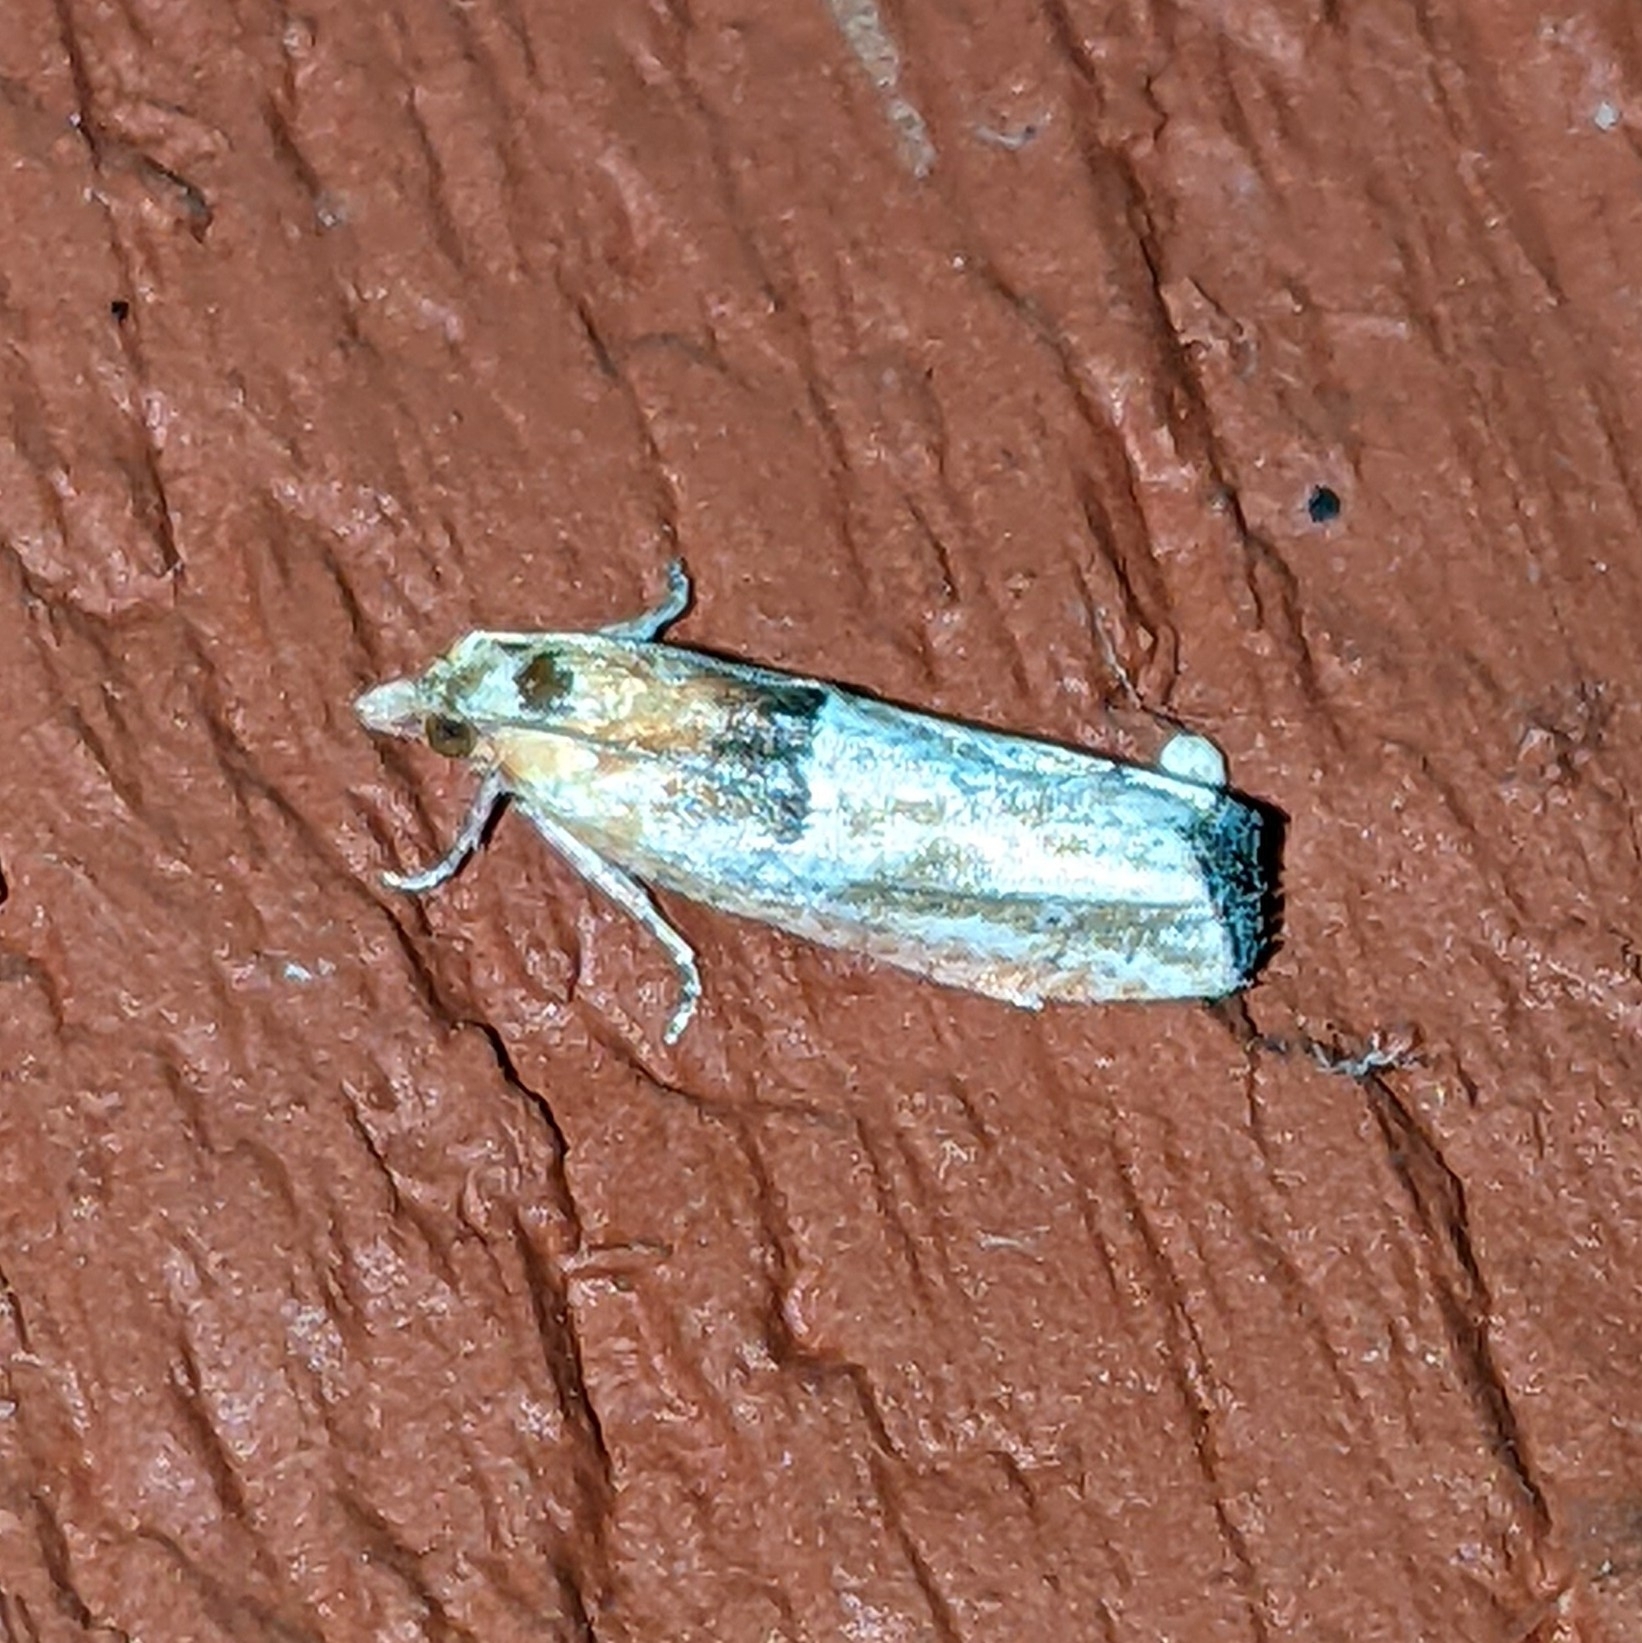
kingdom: Animalia
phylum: Arthropoda
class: Insecta
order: Lepidoptera
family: Tortricidae
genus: Epinotia
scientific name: Epinotia johnsonana
